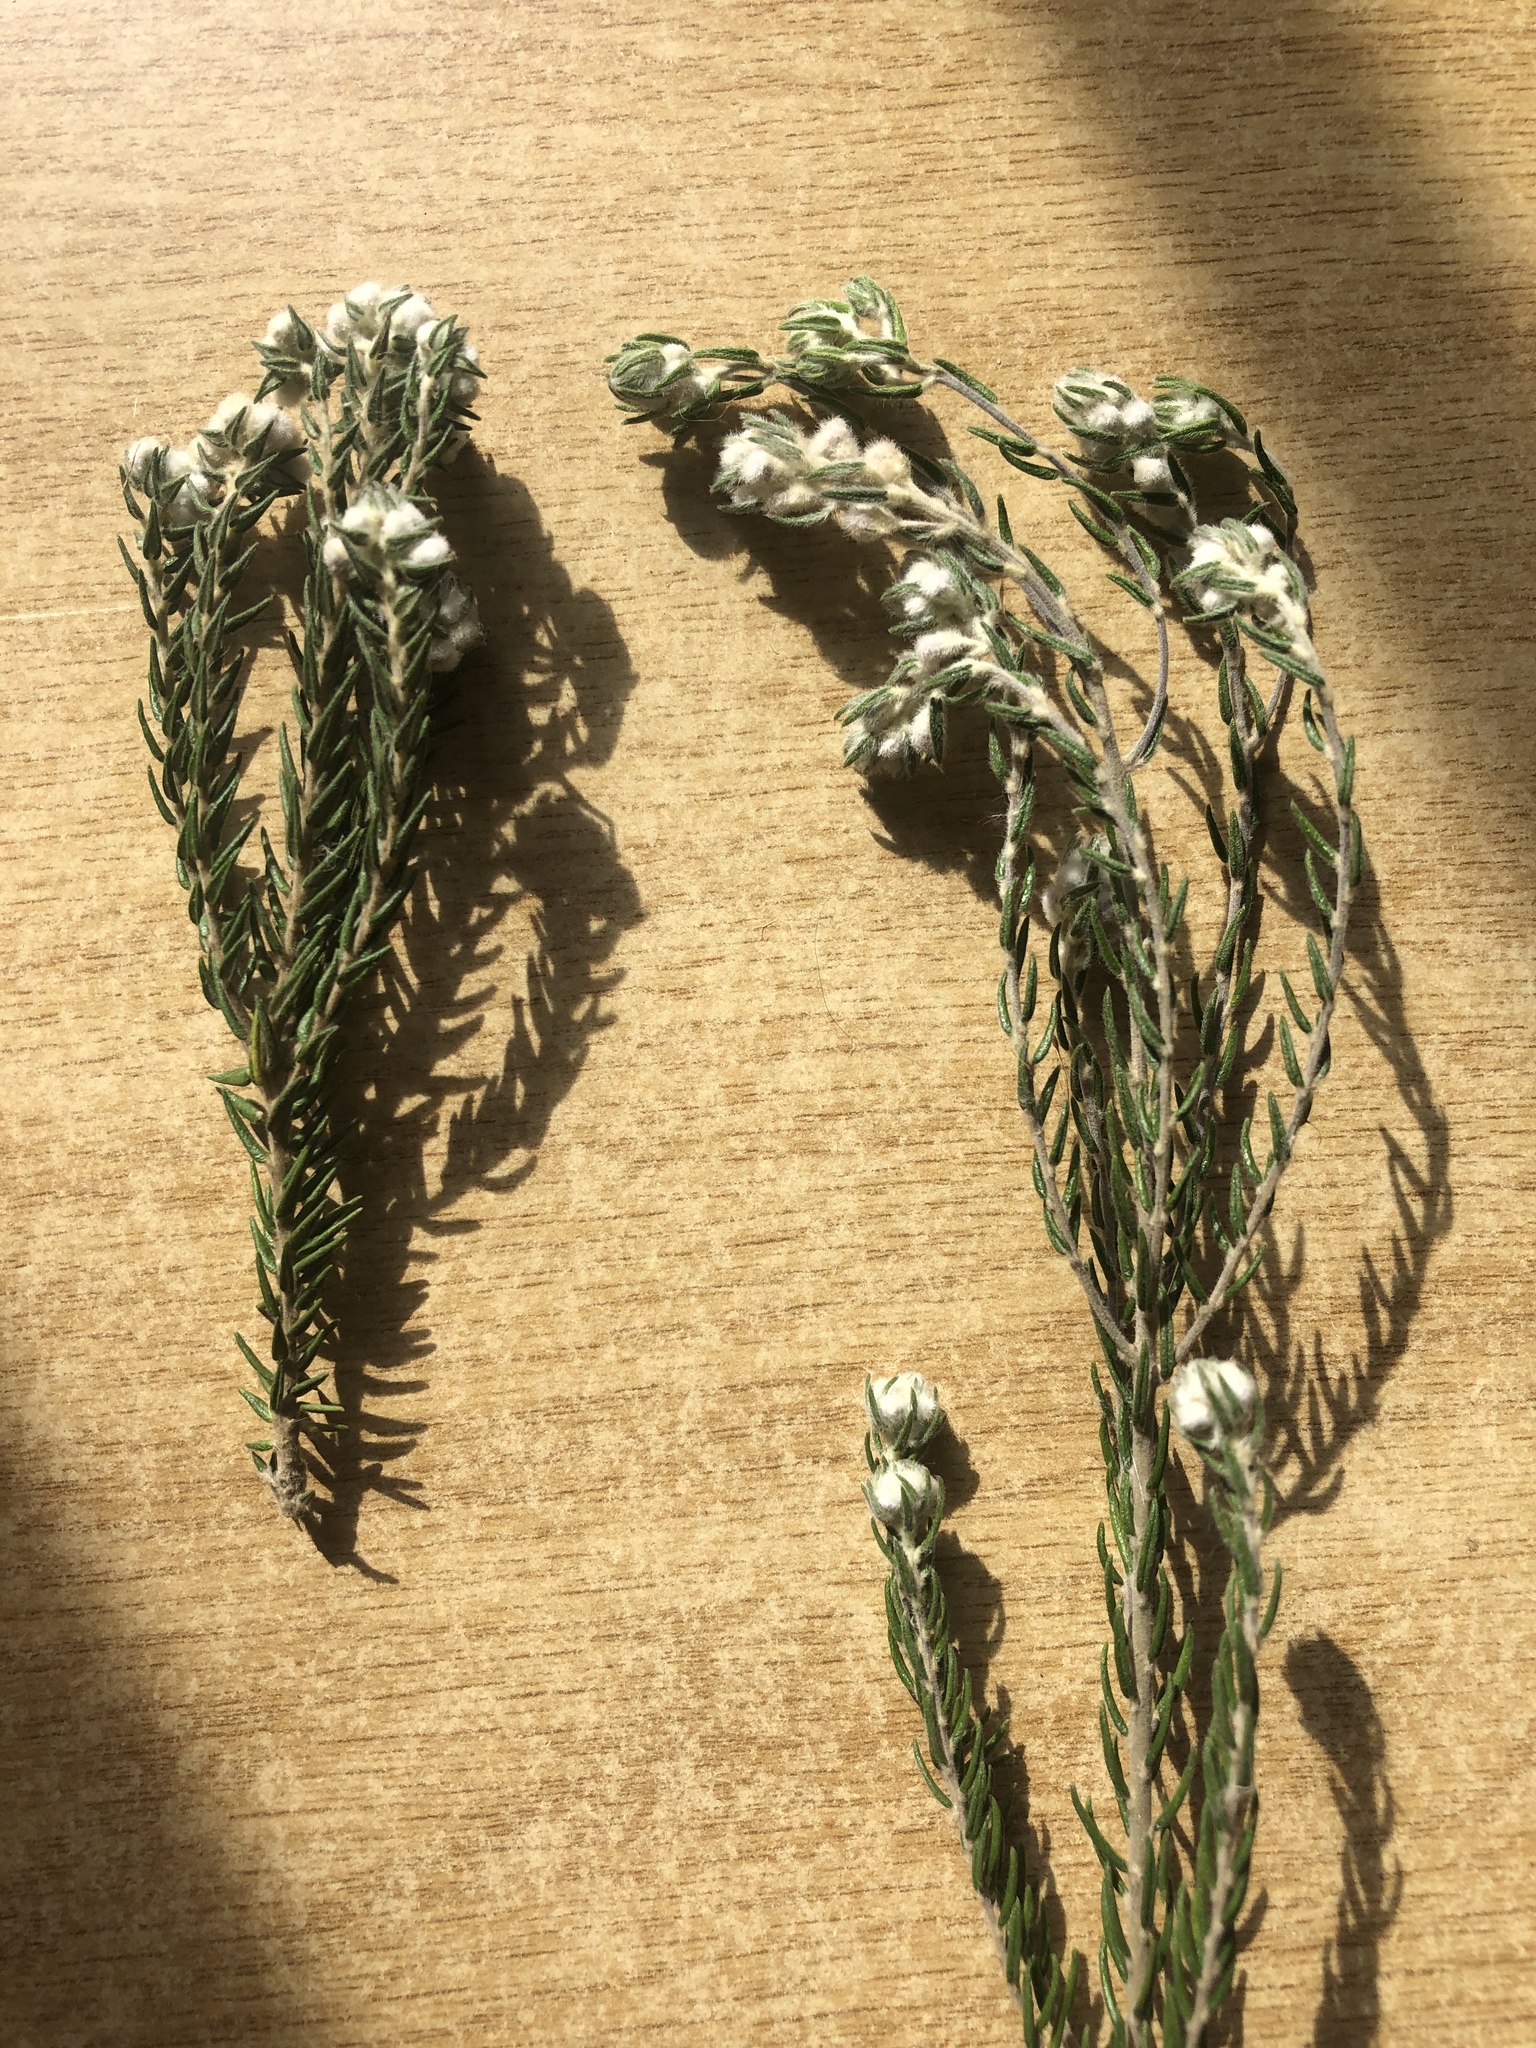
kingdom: Plantae
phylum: Tracheophyta
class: Magnoliopsida
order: Rosales
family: Rhamnaceae
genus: Phylica
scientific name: Phylica purpurea
